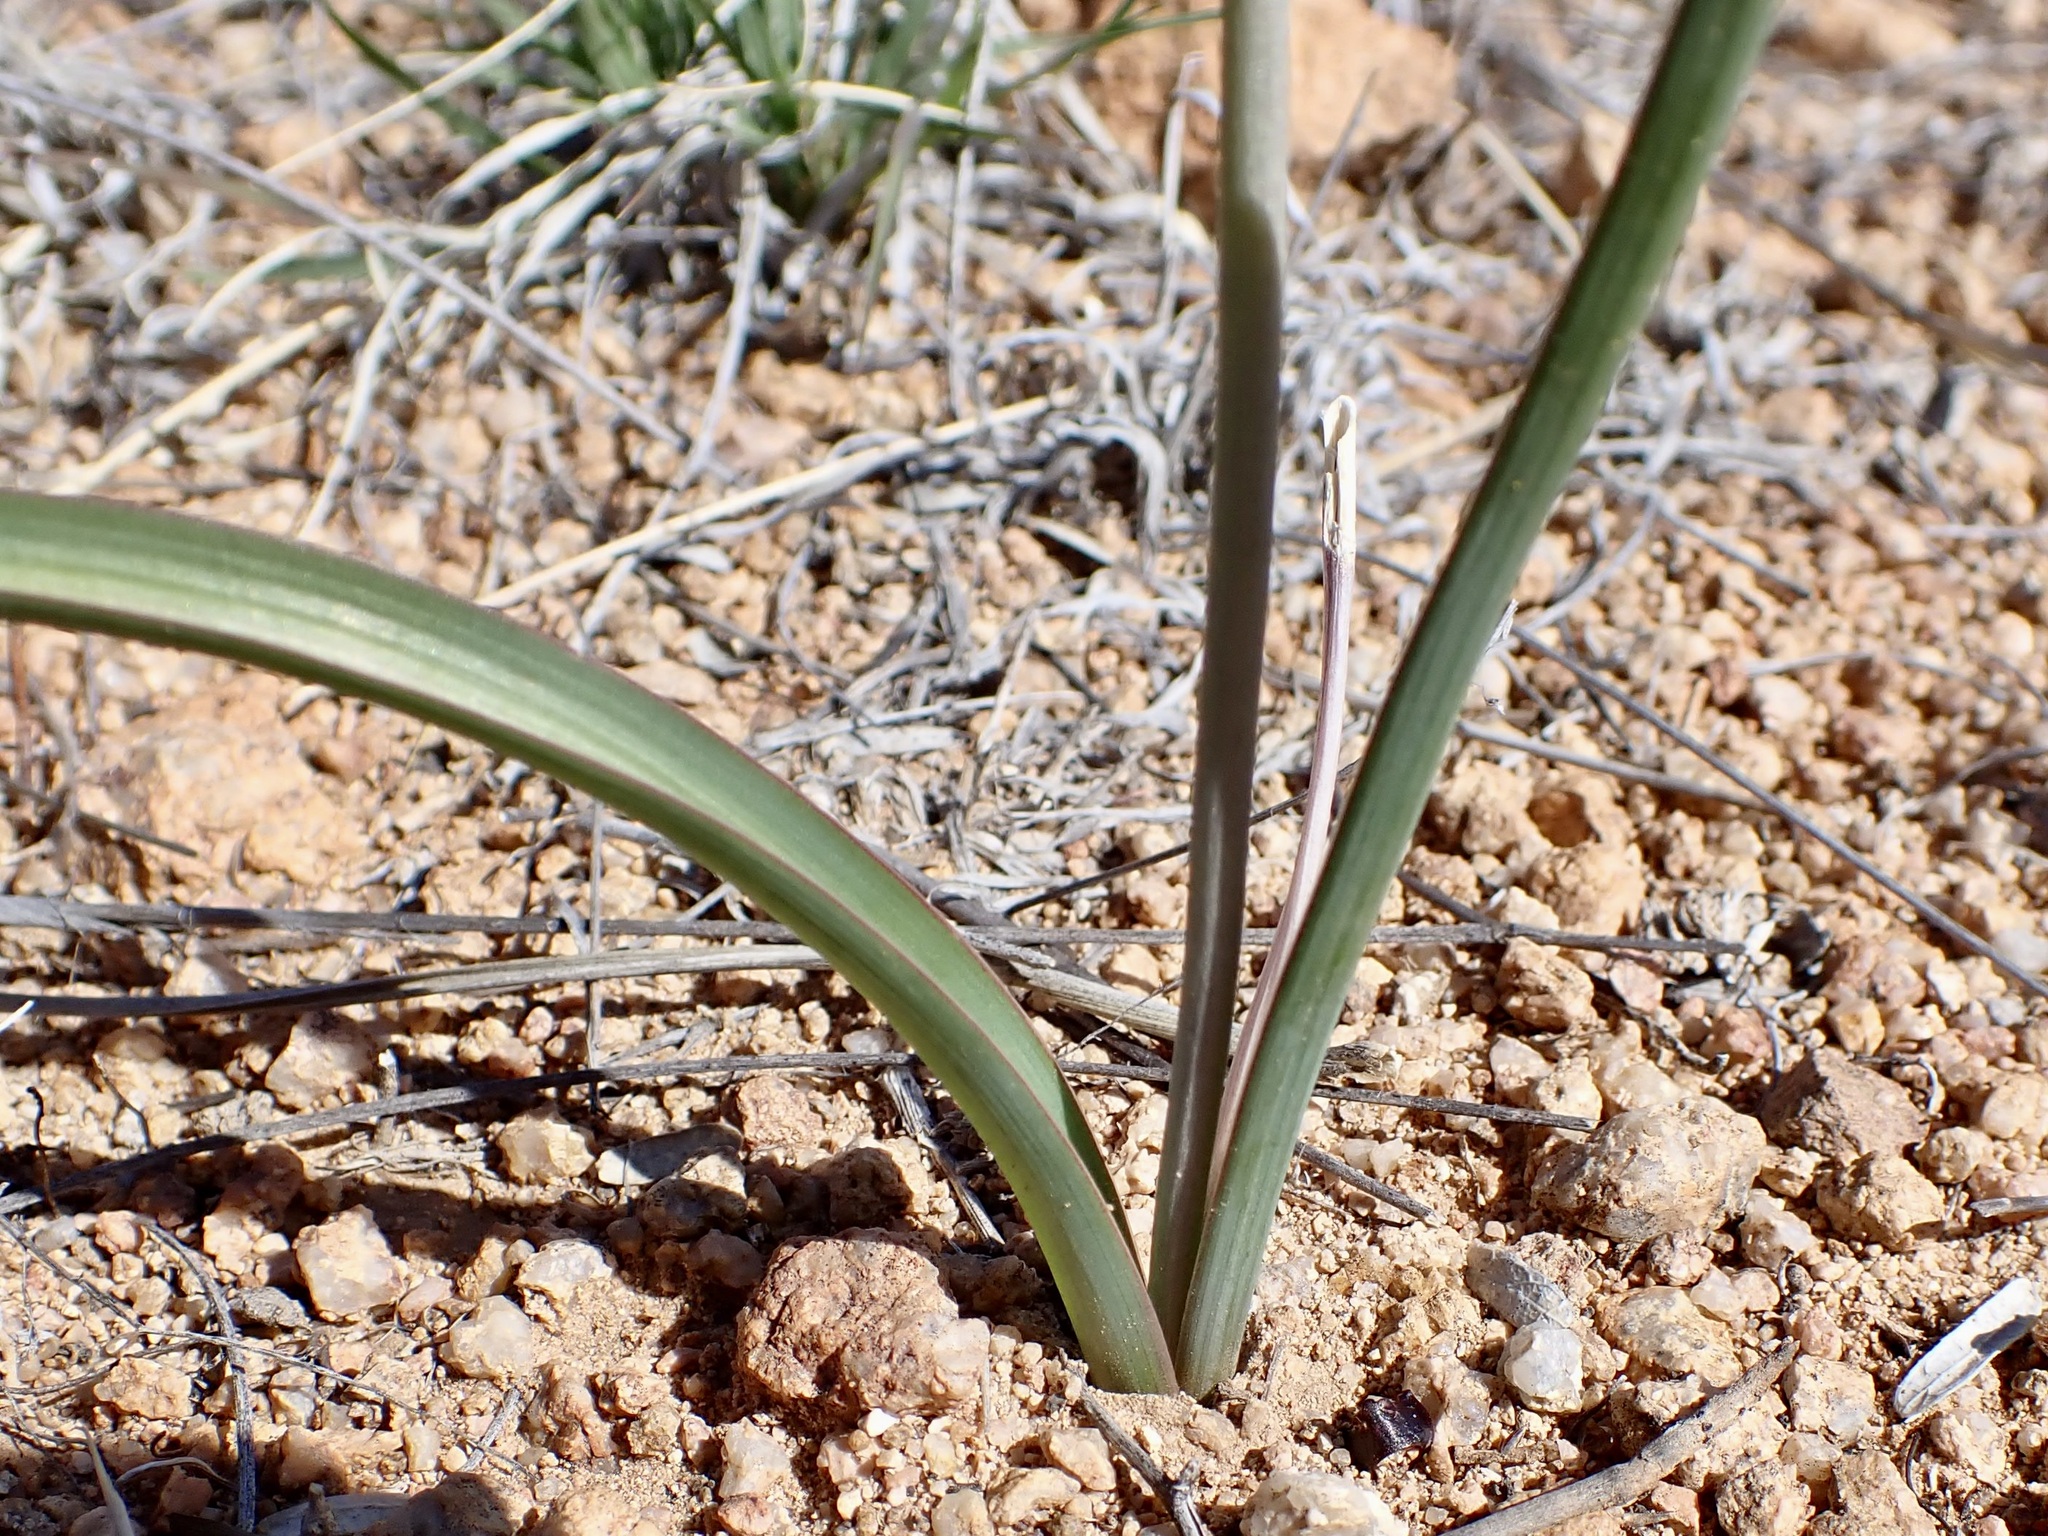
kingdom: Plantae
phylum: Tracheophyta
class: Liliopsida
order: Asparagales
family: Asparagaceae
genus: Dipterostemon
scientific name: Dipterostemon capitatus
